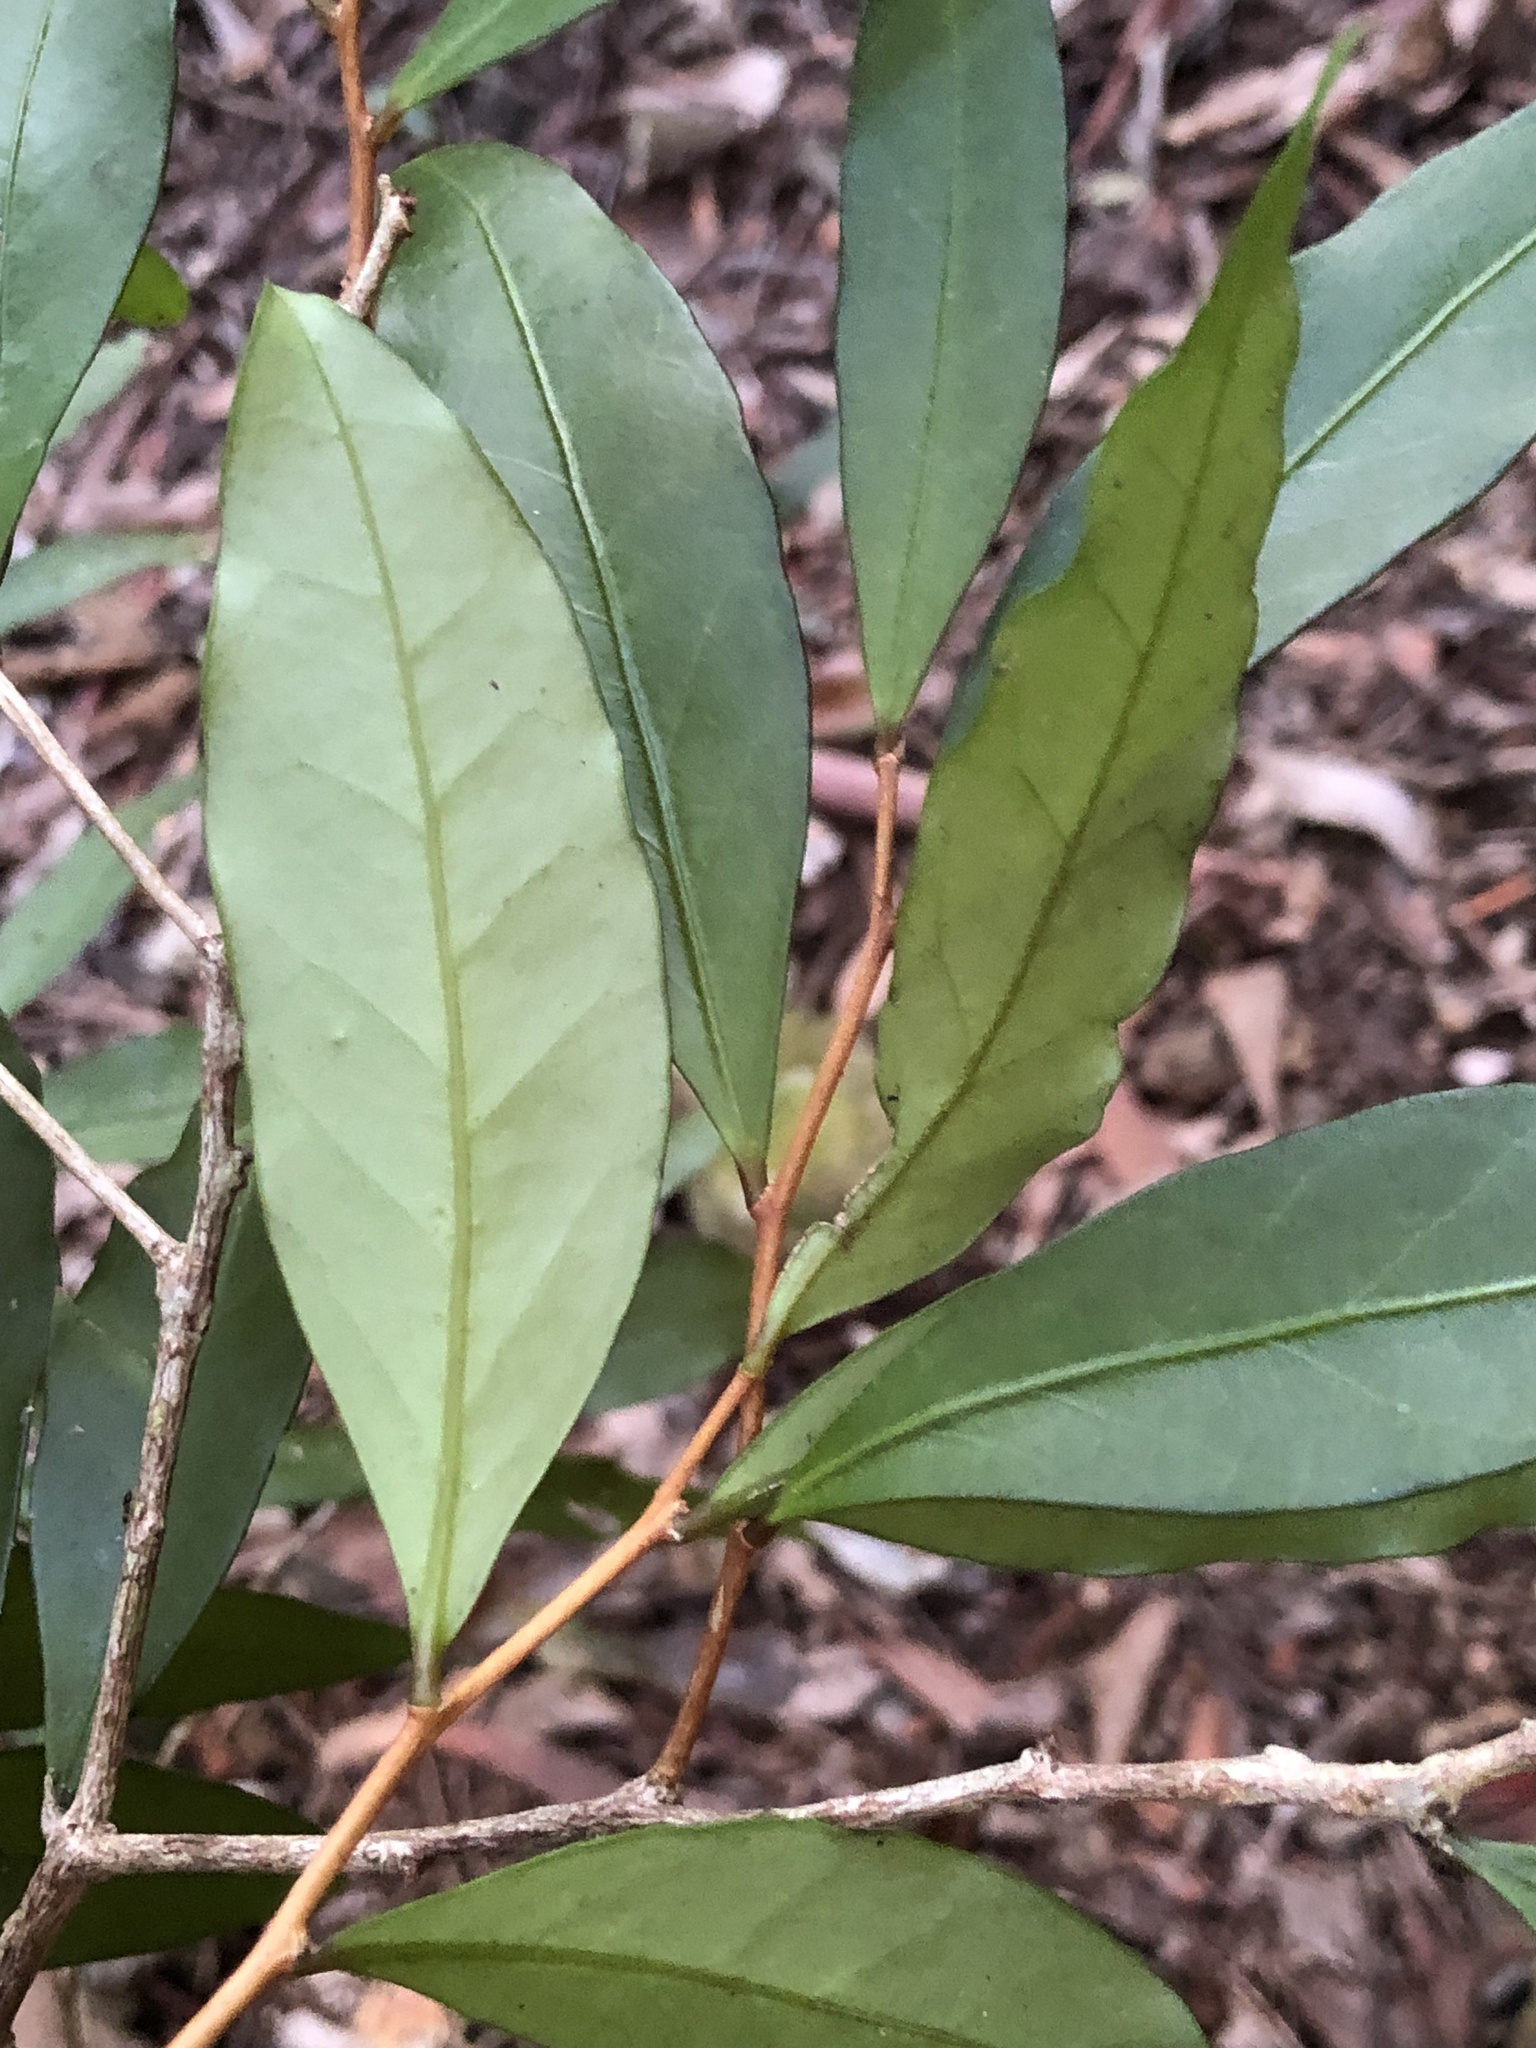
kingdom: Plantae
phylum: Tracheophyta
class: Magnoliopsida
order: Celastrales
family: Celastraceae
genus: Hedraianthera
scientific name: Hedraianthera porphyropetala
